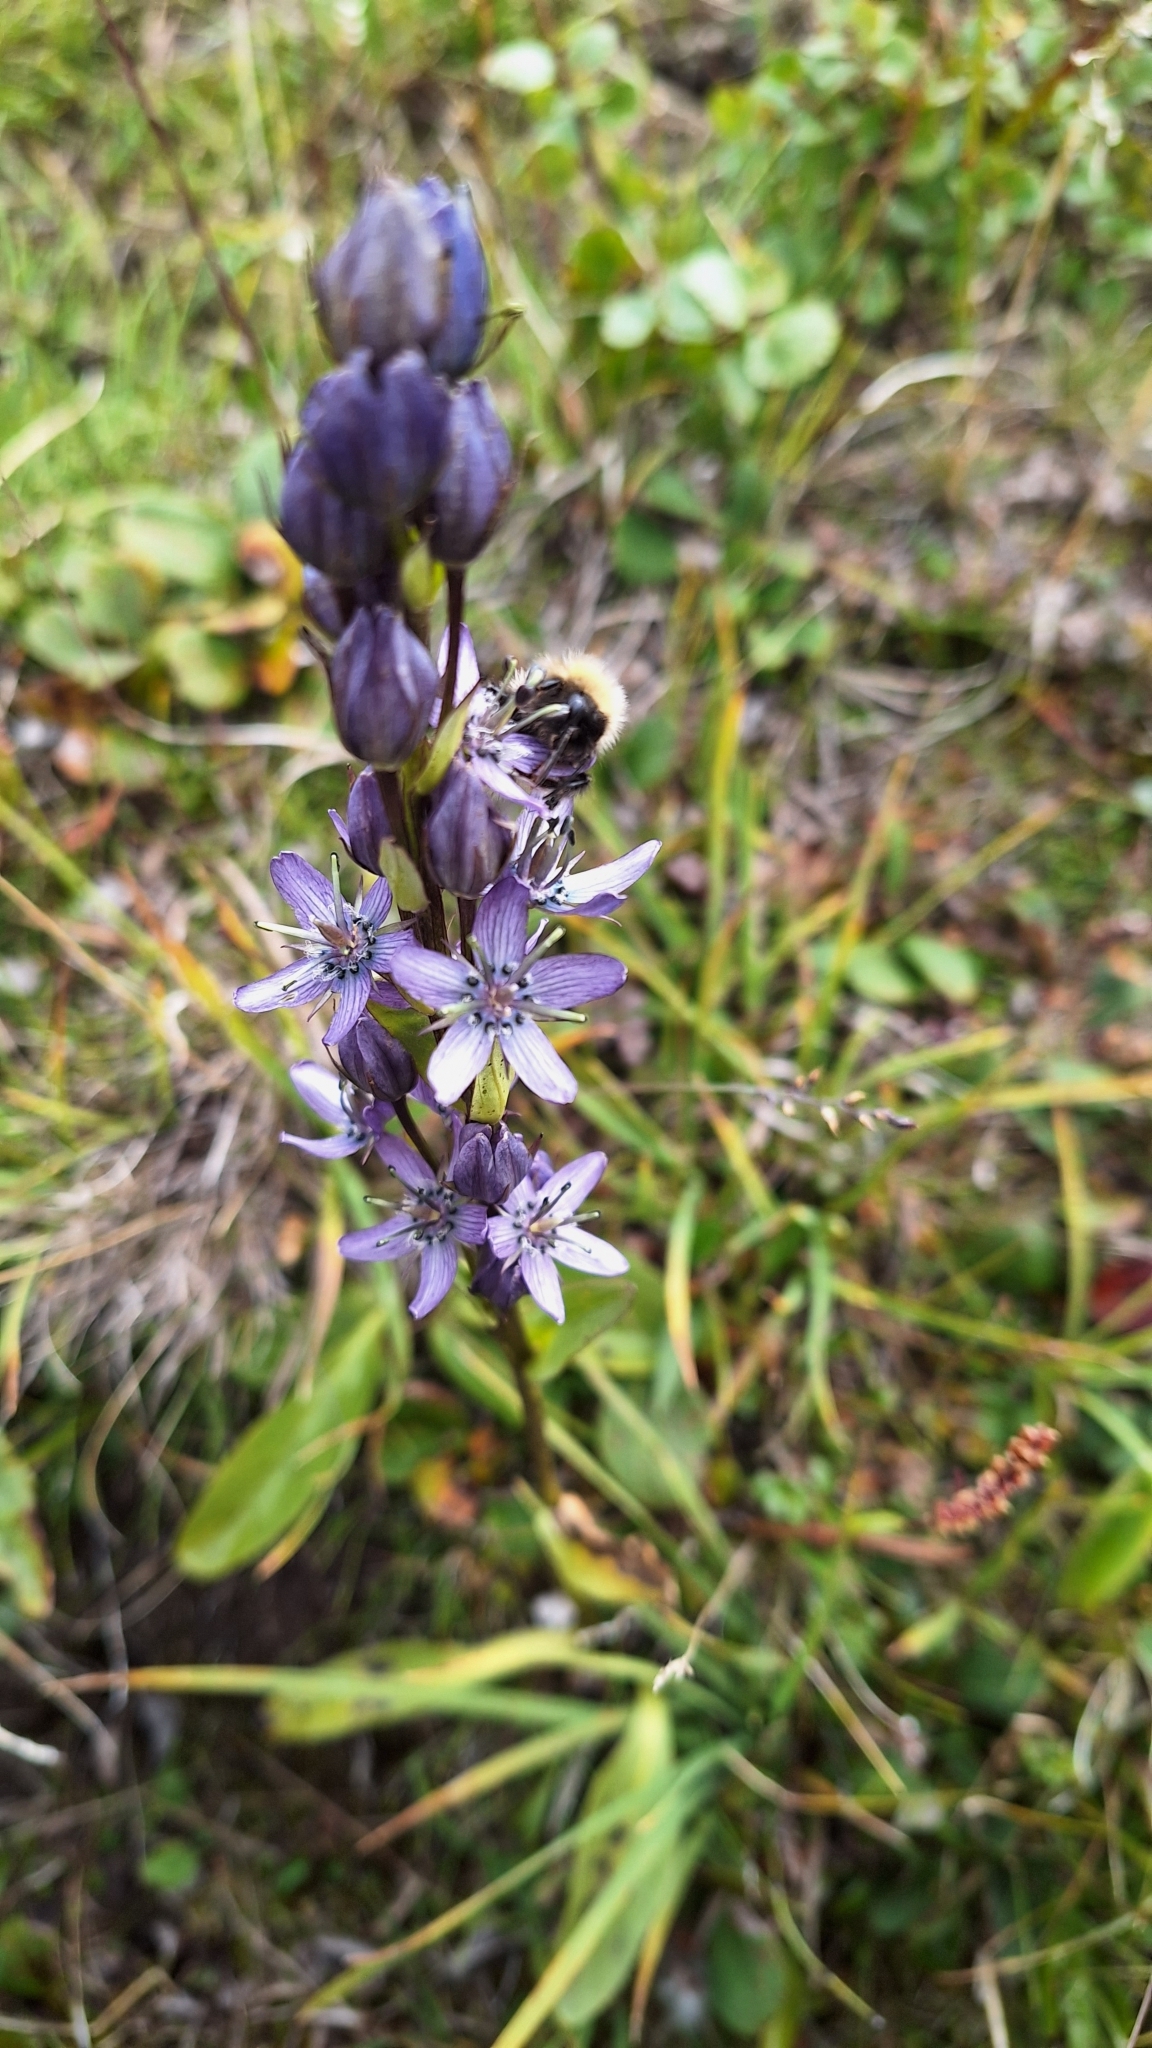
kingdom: Plantae
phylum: Tracheophyta
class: Magnoliopsida
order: Gentianales
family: Gentianaceae
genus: Swertia
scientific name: Swertia obtusa
